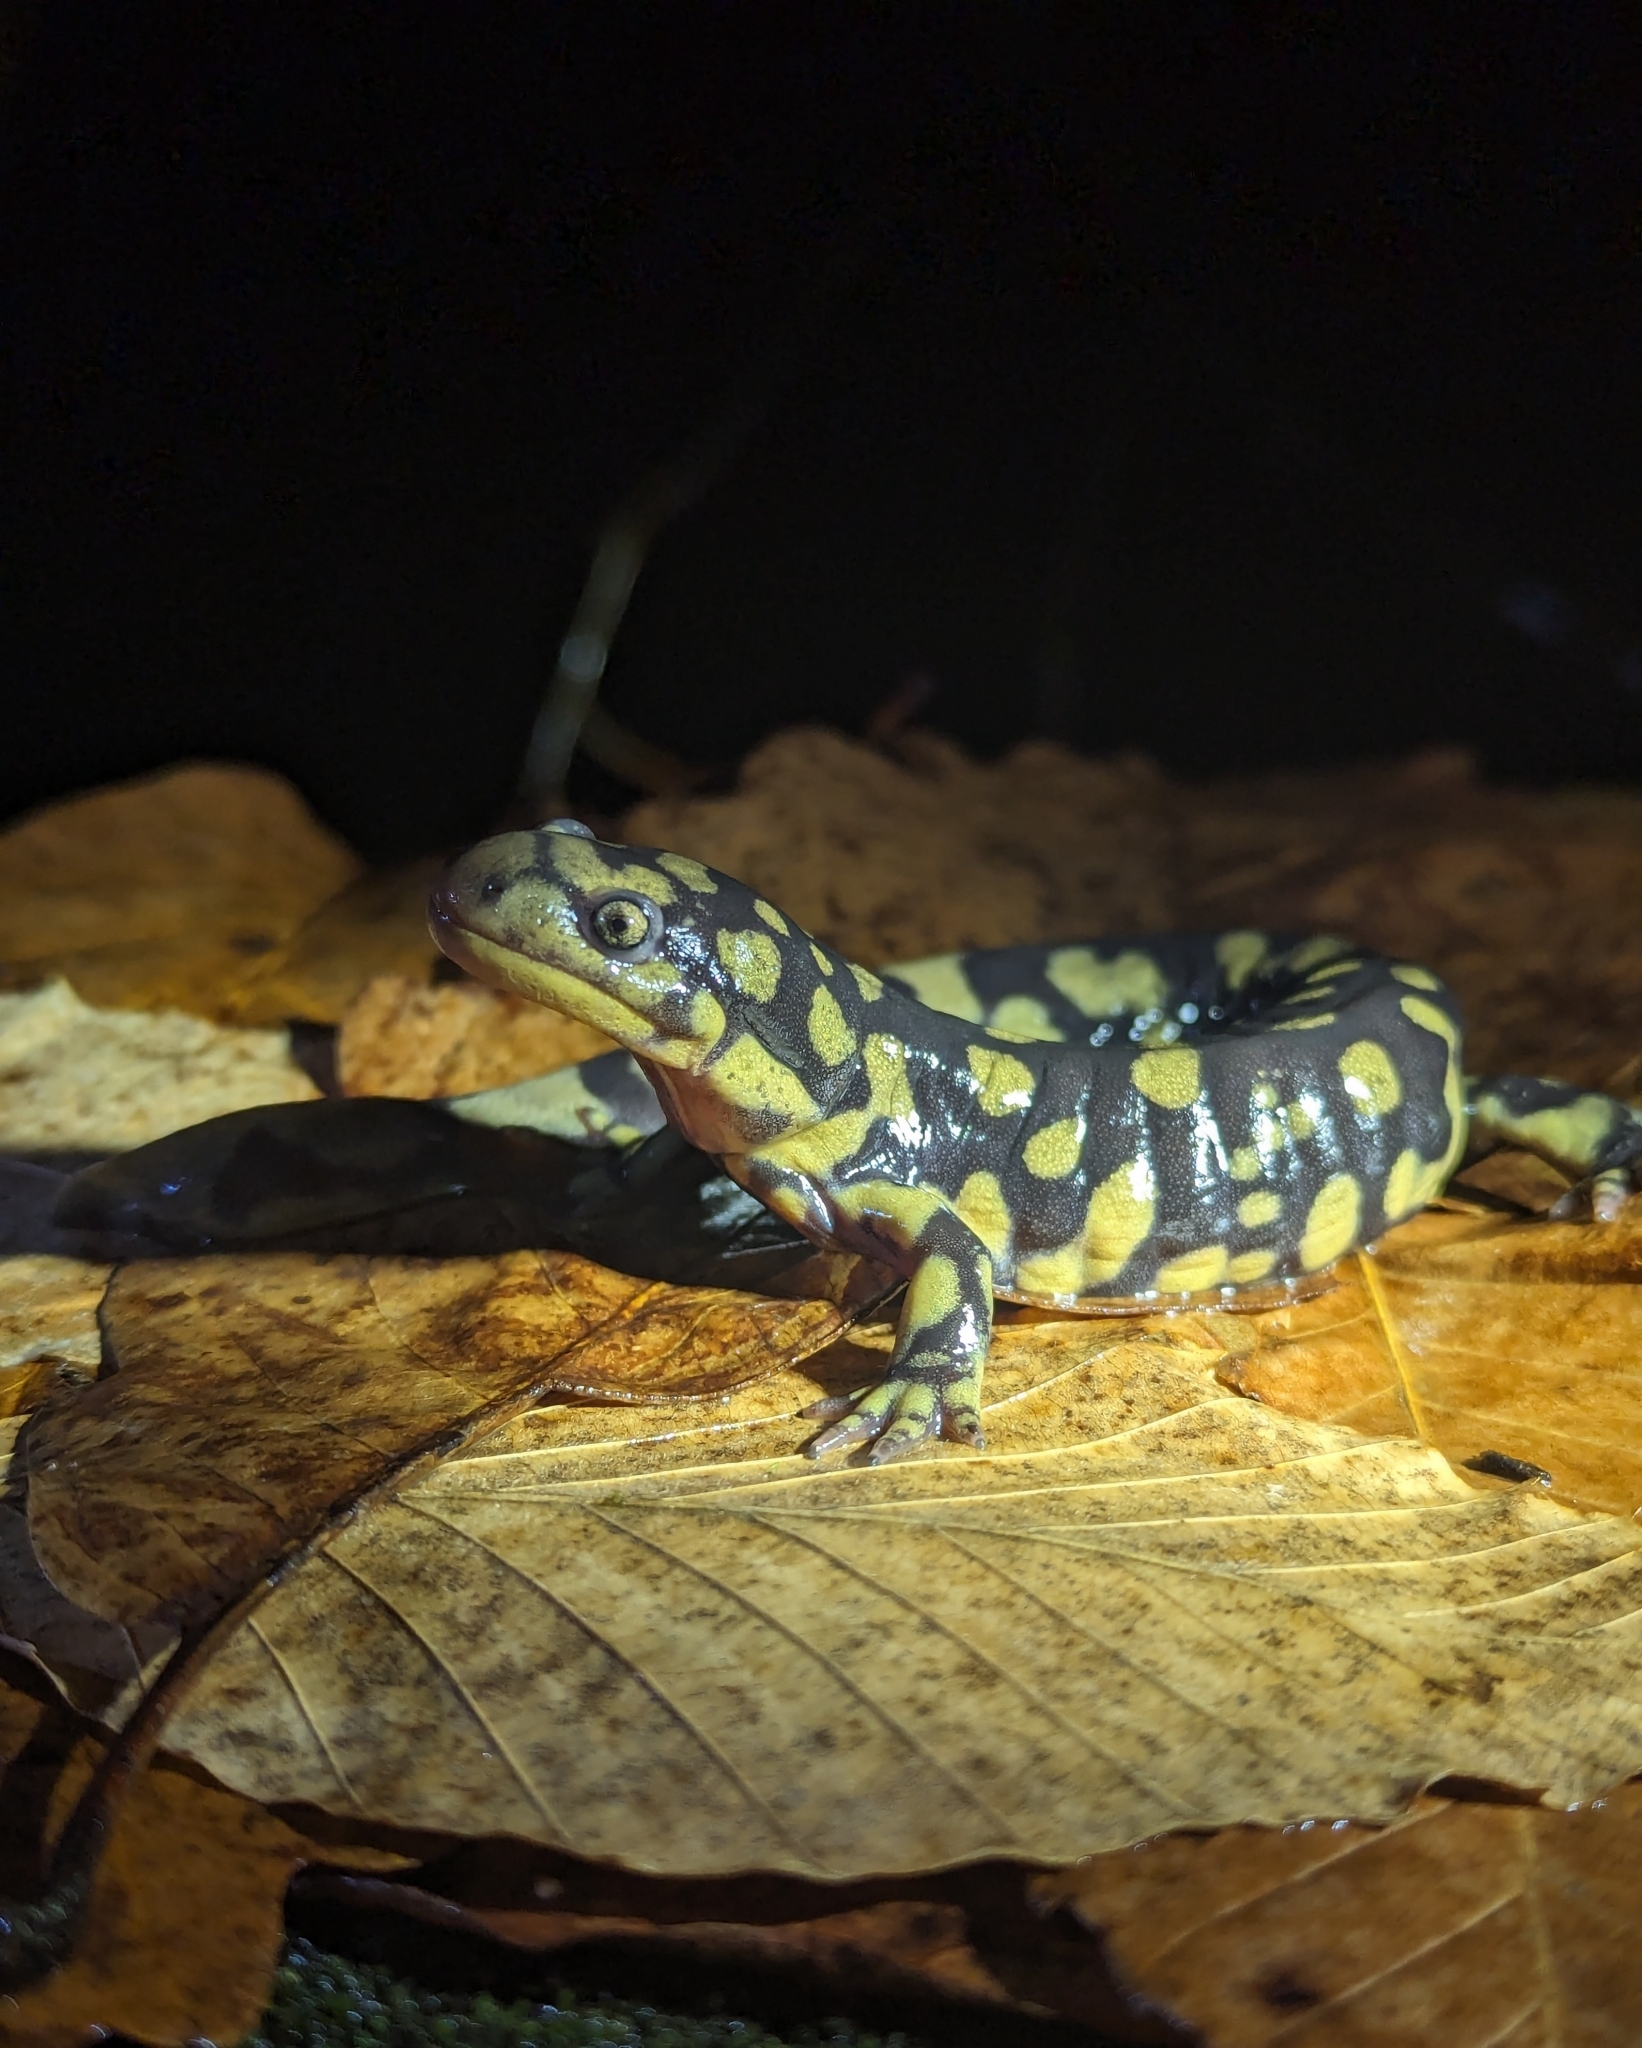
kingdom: Animalia
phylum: Chordata
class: Amphibia
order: Caudata
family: Ambystomatidae
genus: Ambystoma
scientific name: Ambystoma tigrinum
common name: Tiger salamander
